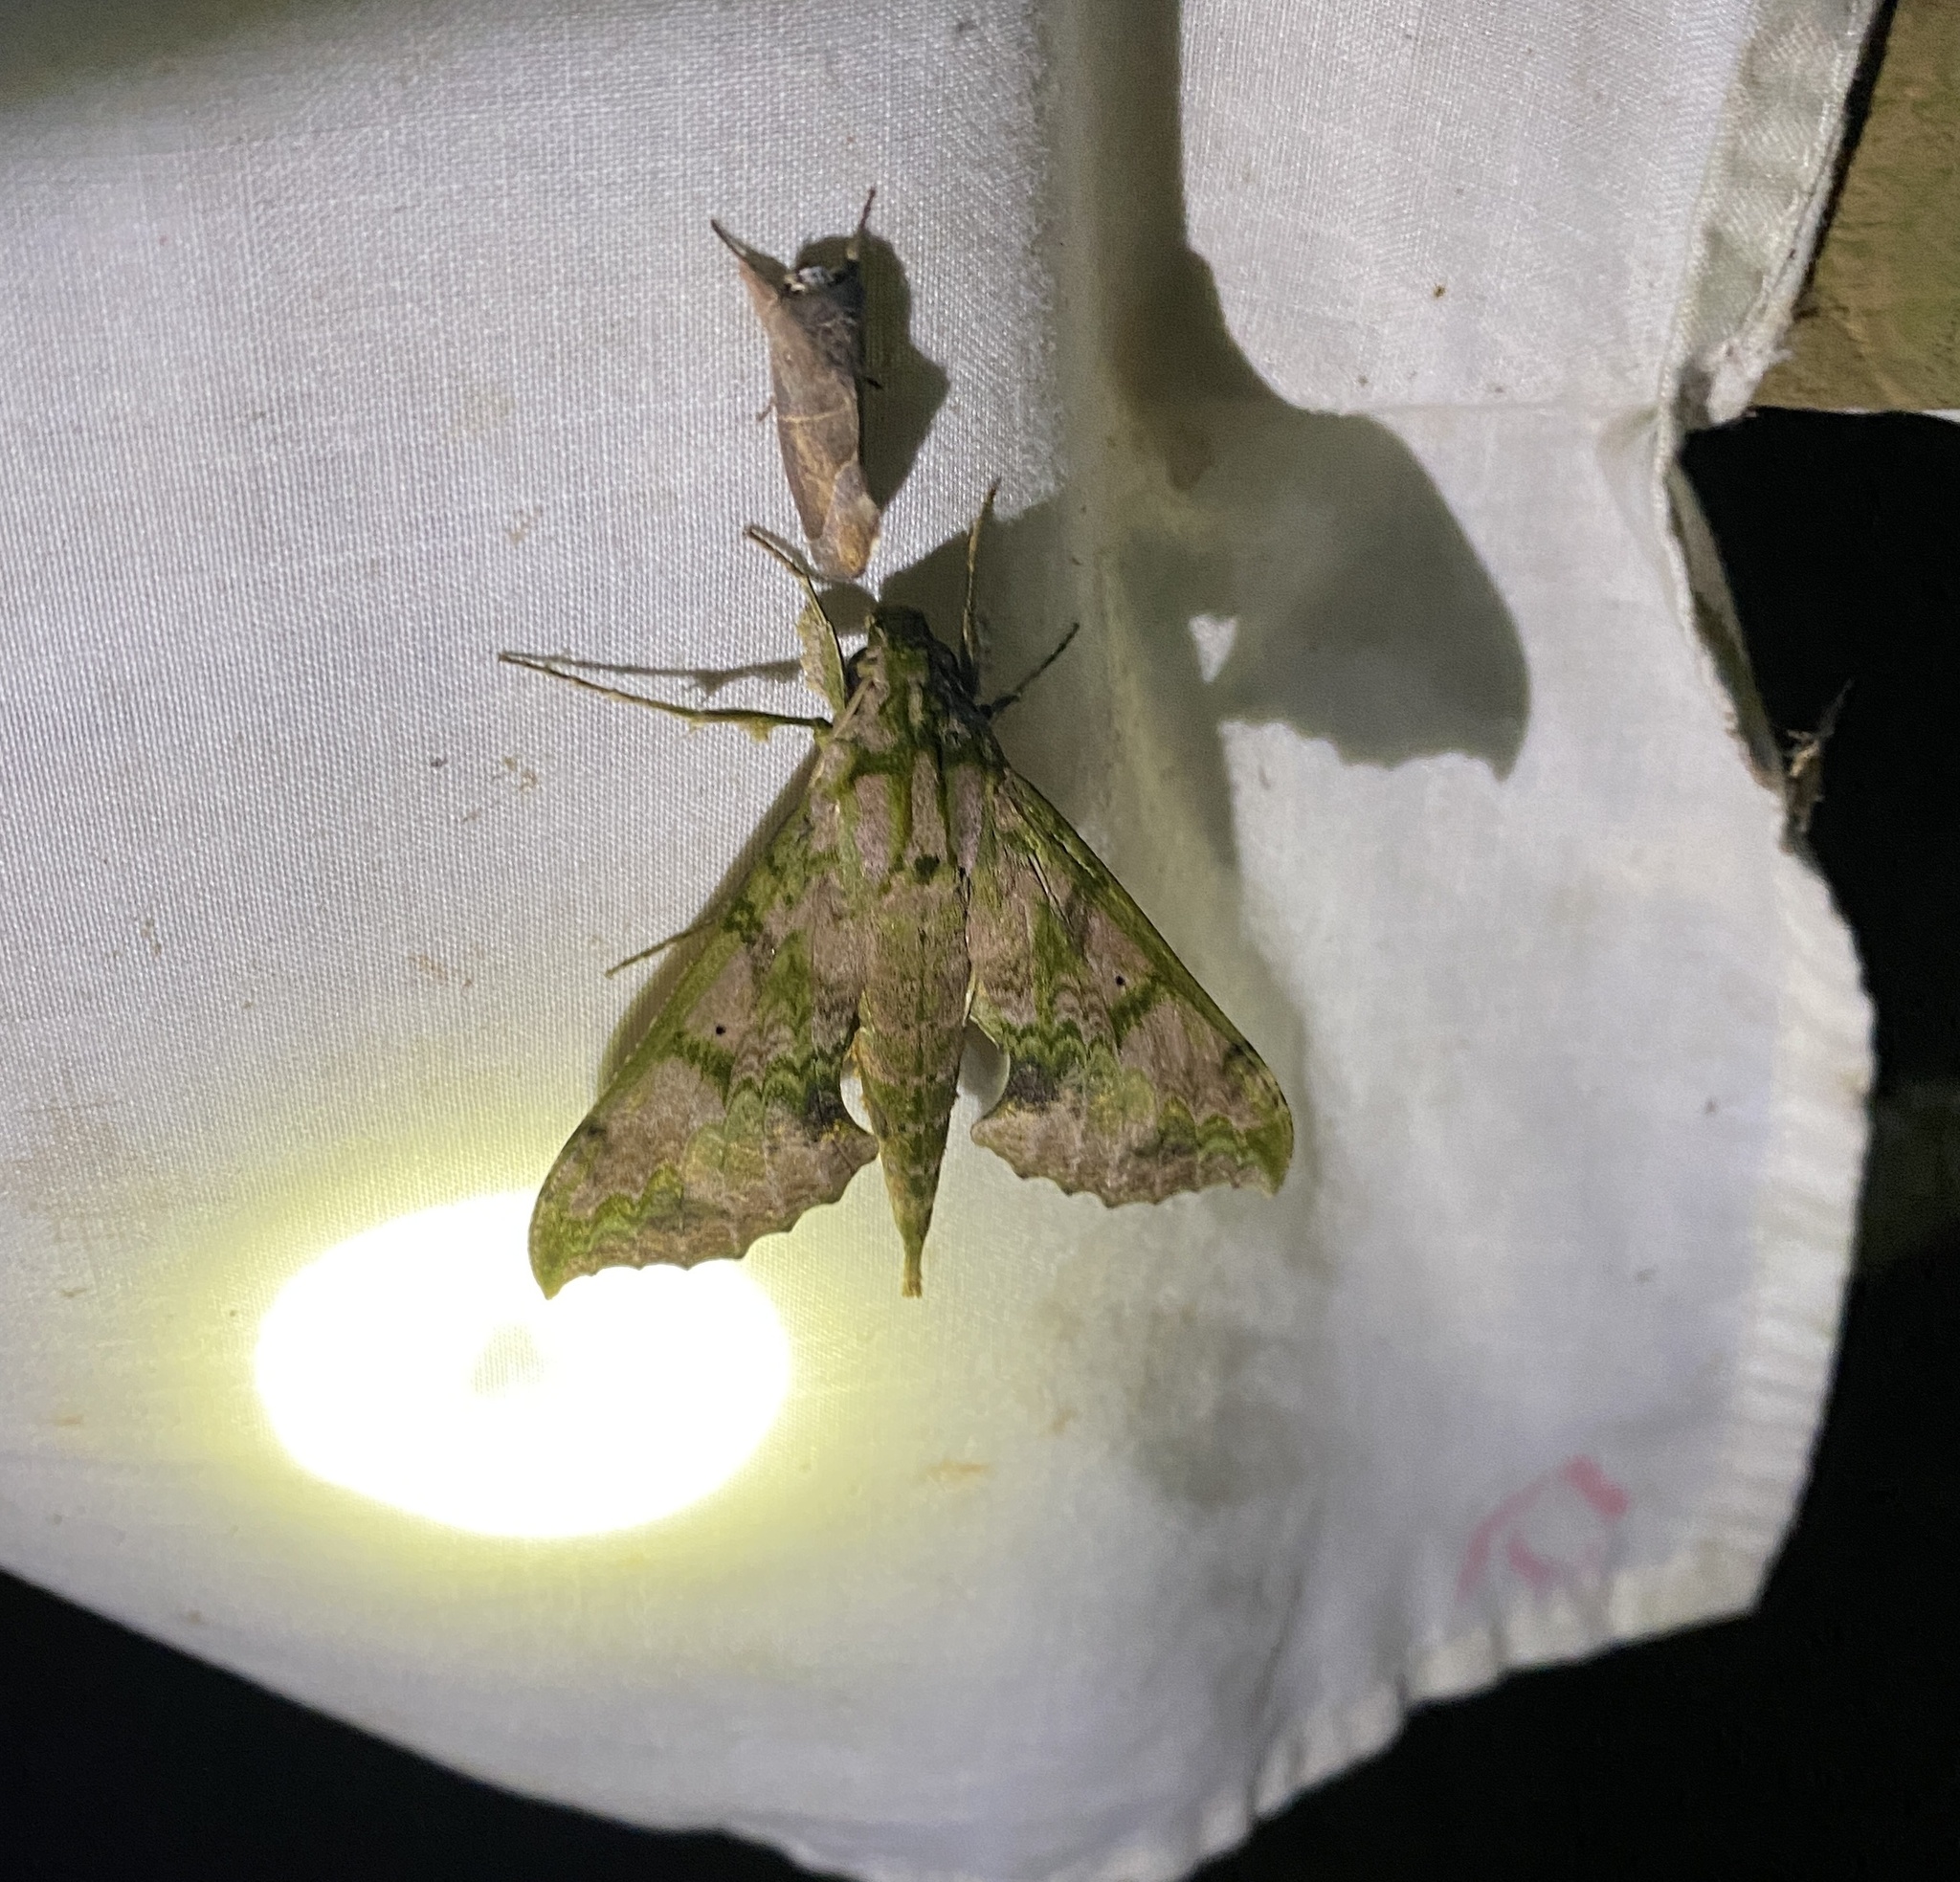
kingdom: Animalia
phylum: Arthropoda
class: Insecta
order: Lepidoptera
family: Sphingidae
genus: Xylophanes
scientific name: Xylophanes zurcheri
